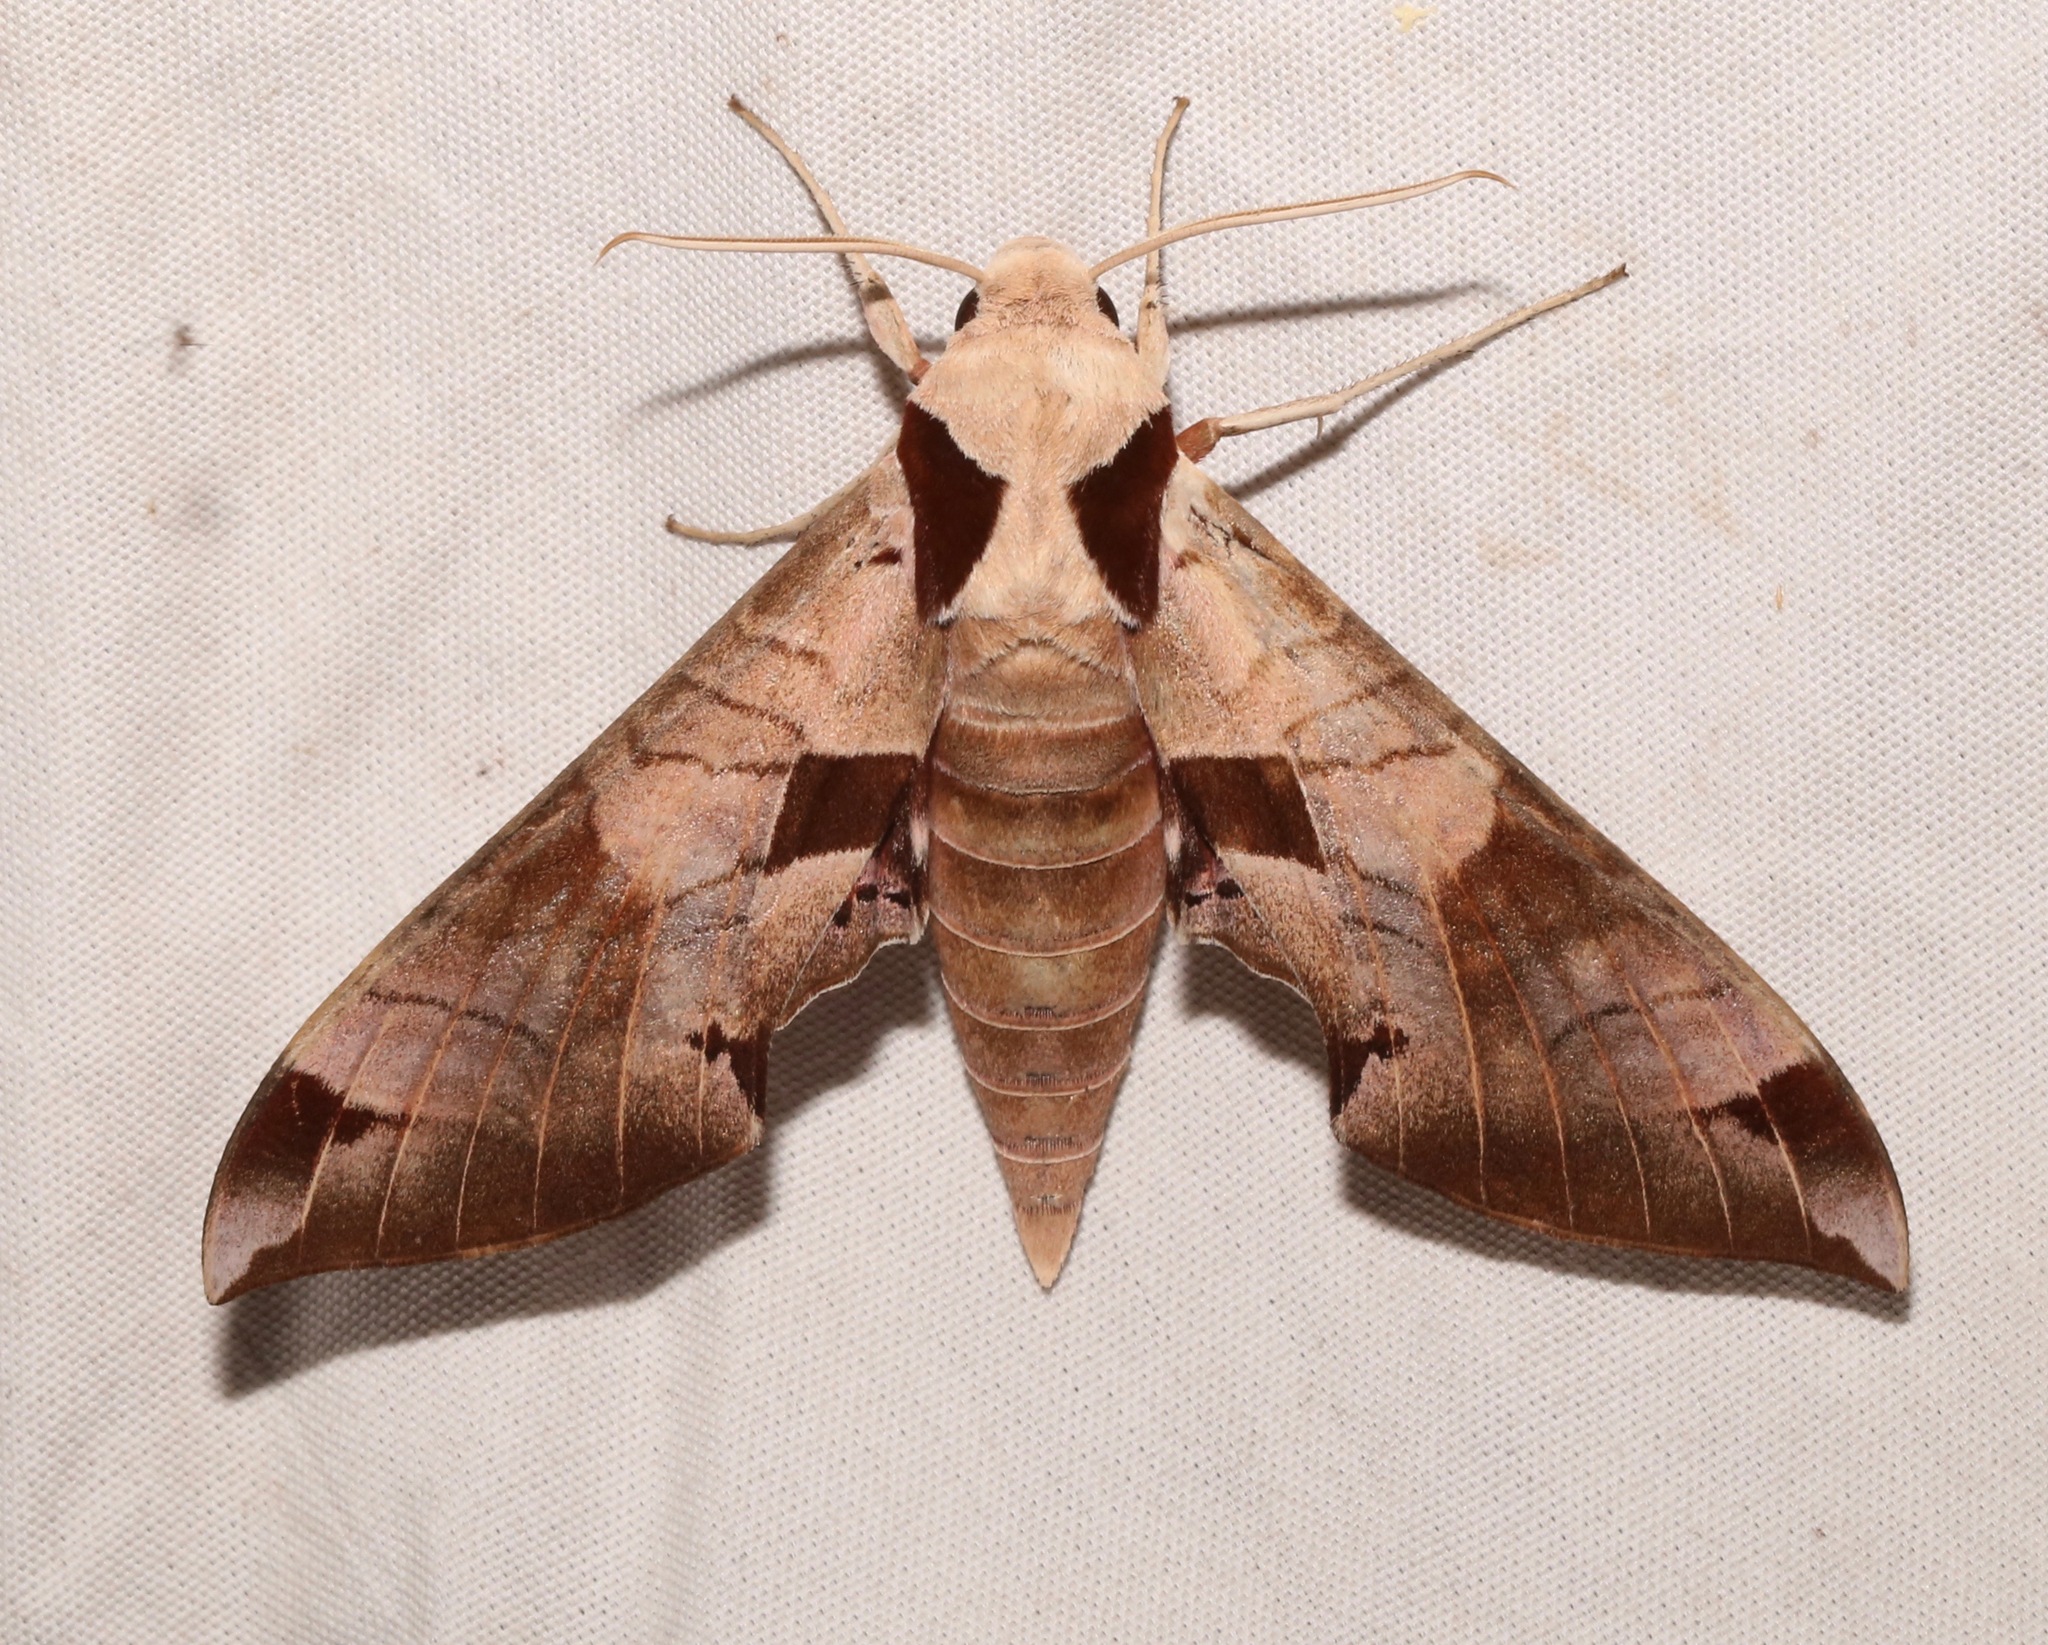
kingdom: Animalia
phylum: Arthropoda
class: Insecta
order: Lepidoptera
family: Sphingidae
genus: Eumorpha
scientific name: Eumorpha achemon
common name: Achemon sphinx
